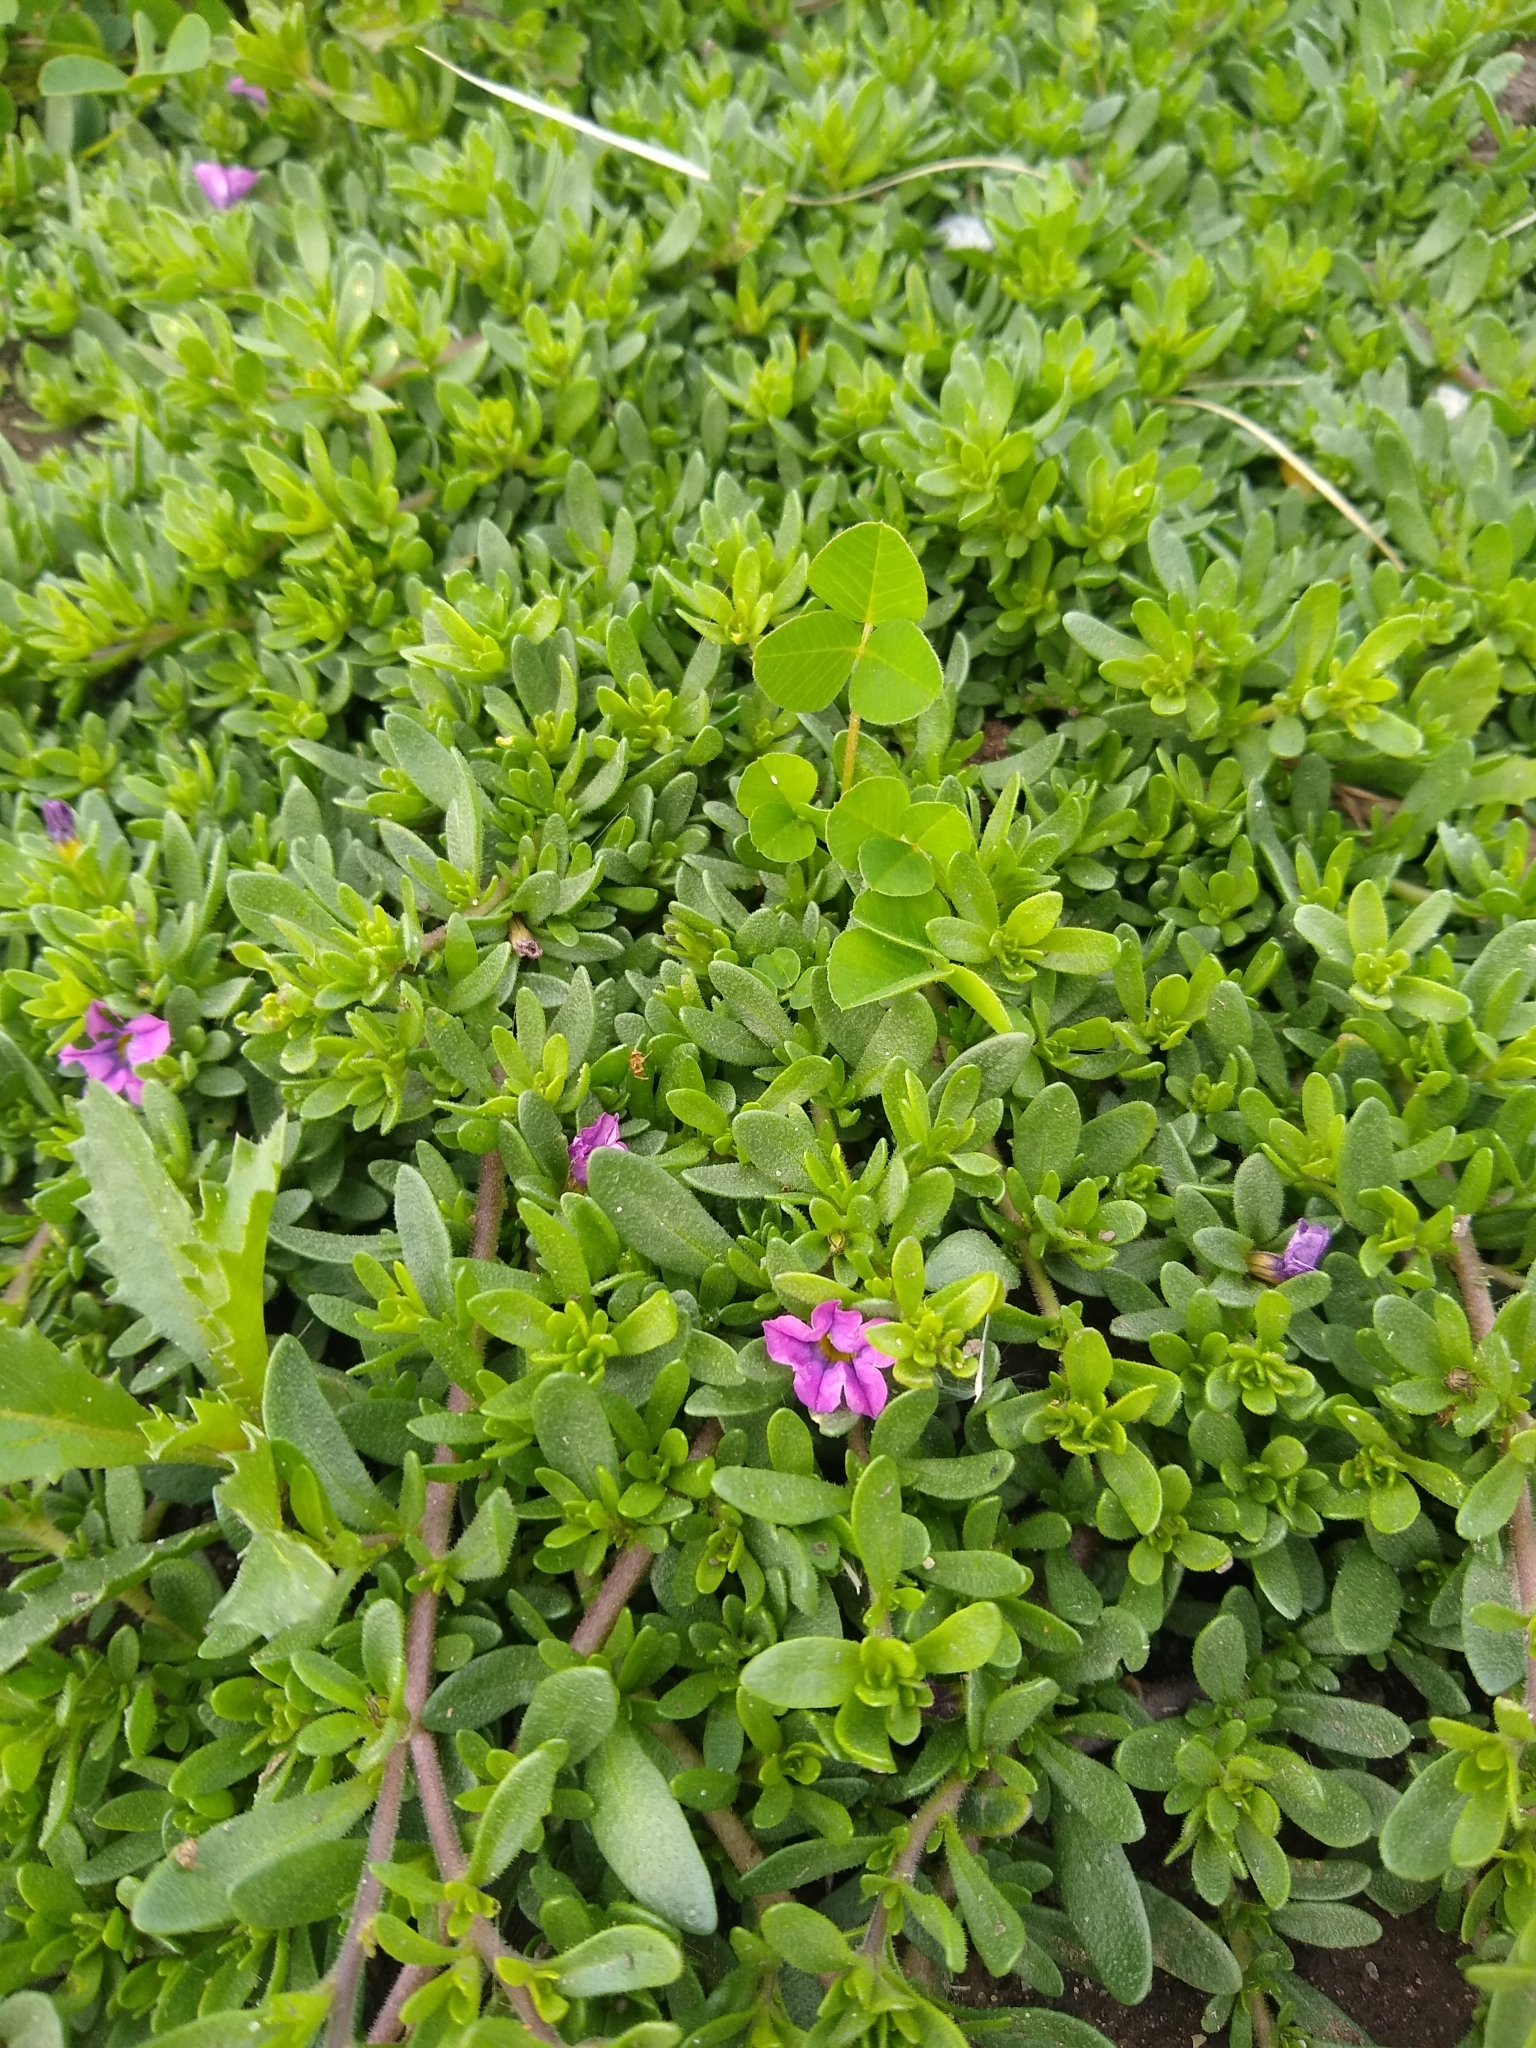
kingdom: Plantae
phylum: Tracheophyta
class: Magnoliopsida
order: Solanales
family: Solanaceae
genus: Calibrachoa
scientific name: Calibrachoa parviflora
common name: Seaside petunia
